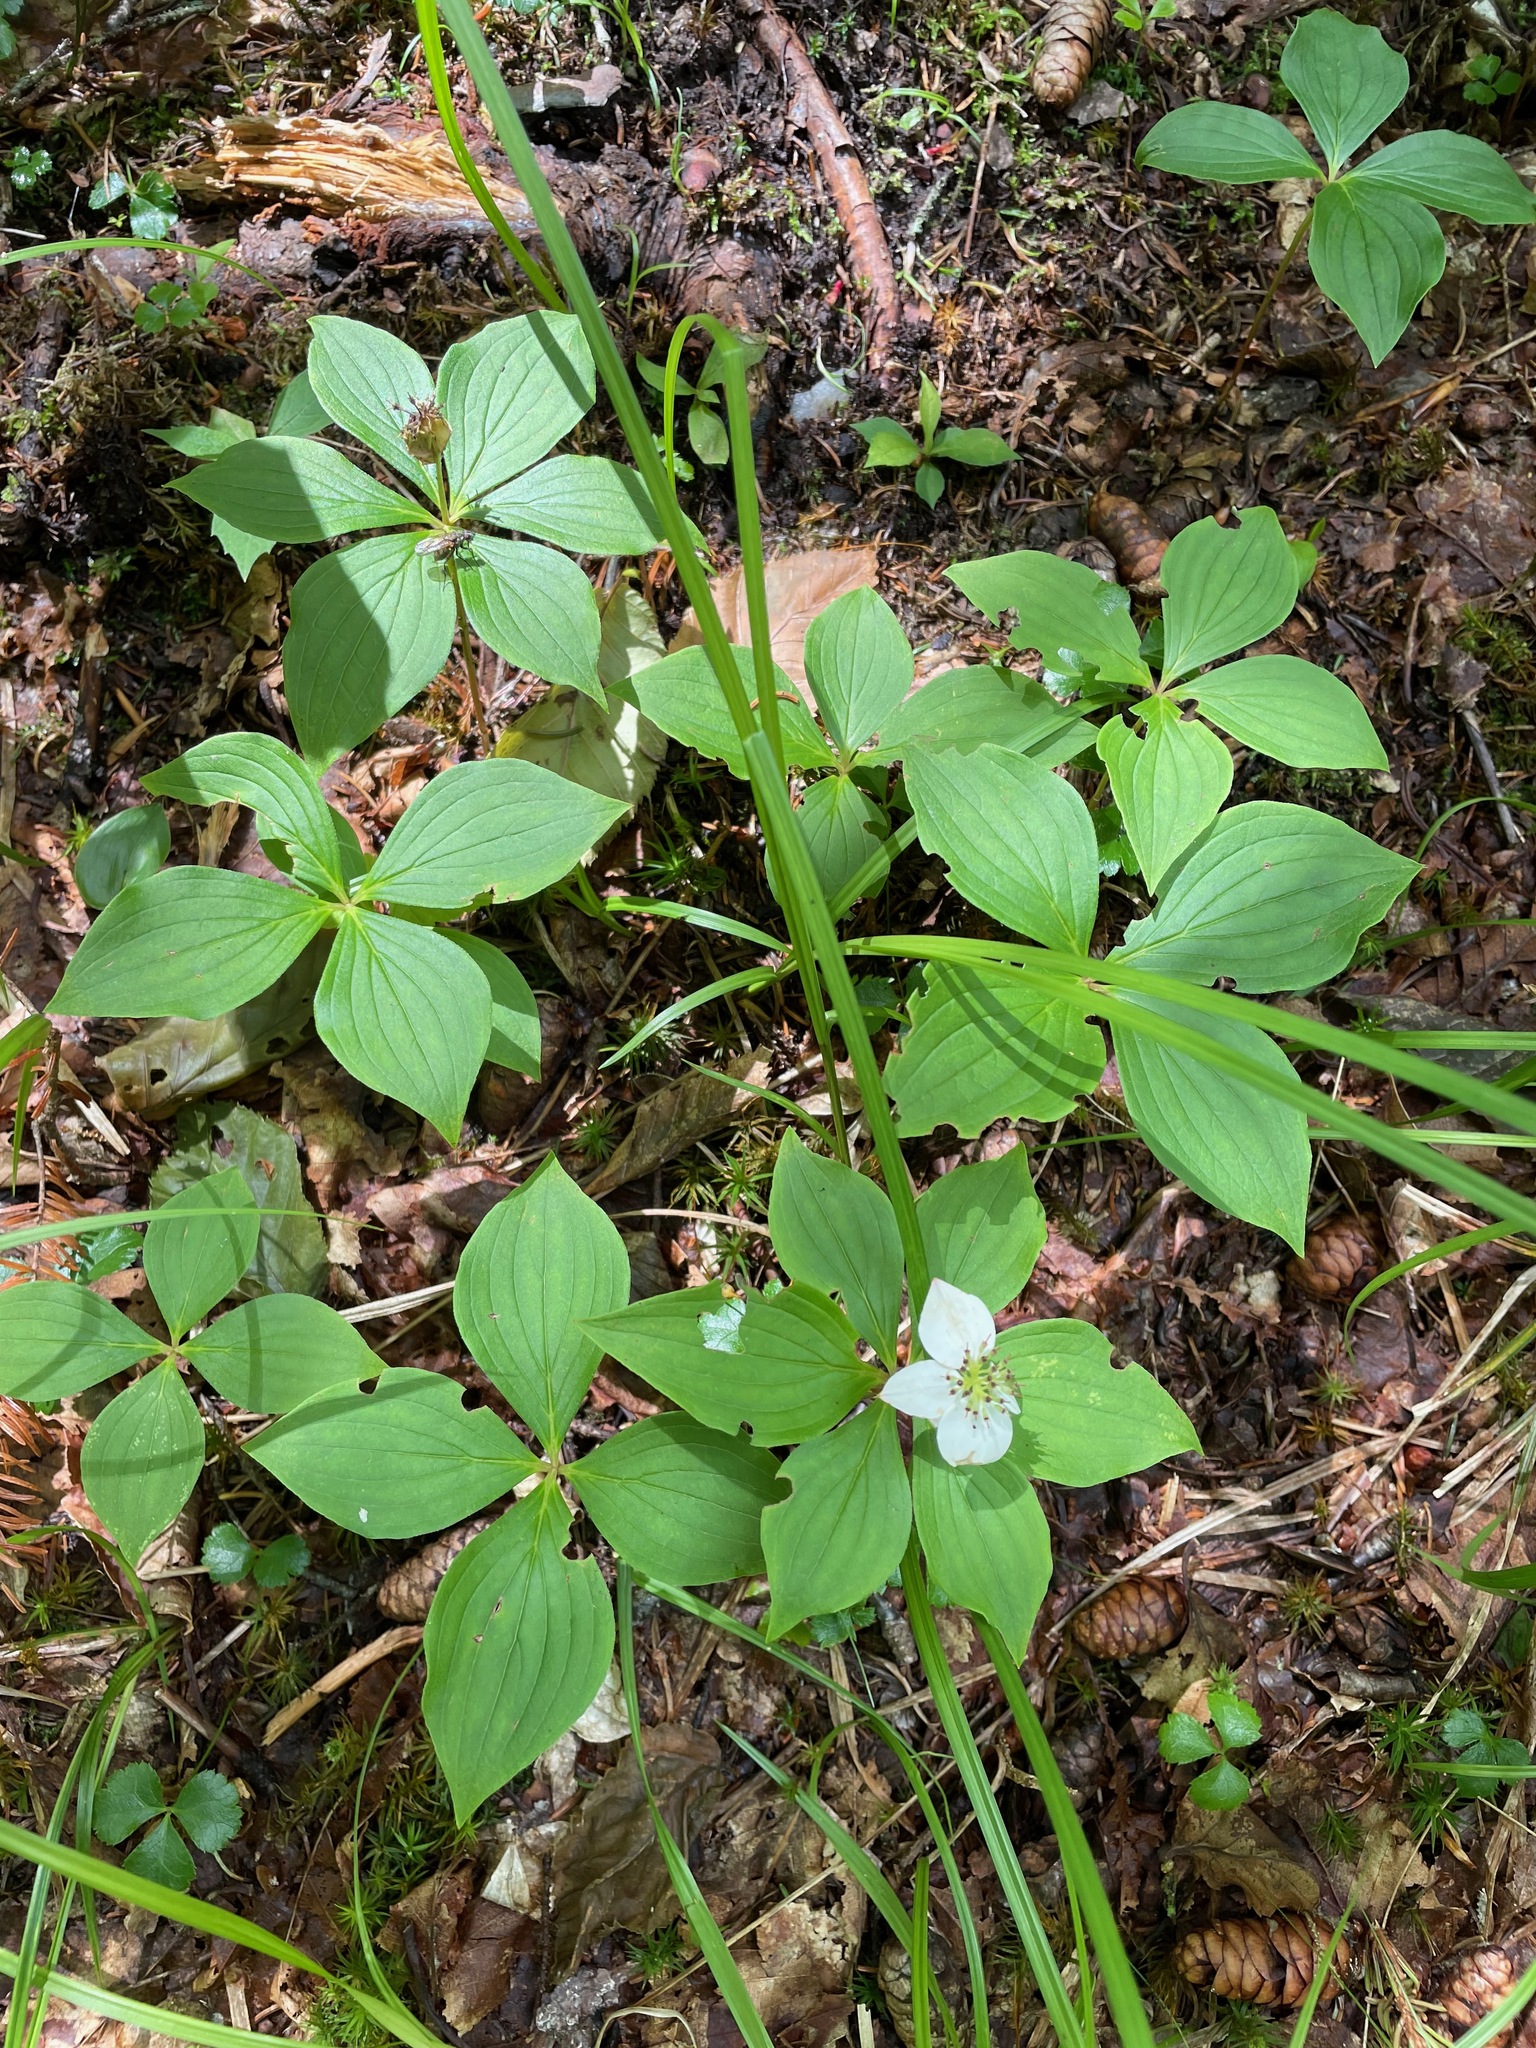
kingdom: Plantae
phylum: Tracheophyta
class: Magnoliopsida
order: Cornales
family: Cornaceae
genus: Cornus
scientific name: Cornus canadensis
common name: Creeping dogwood
